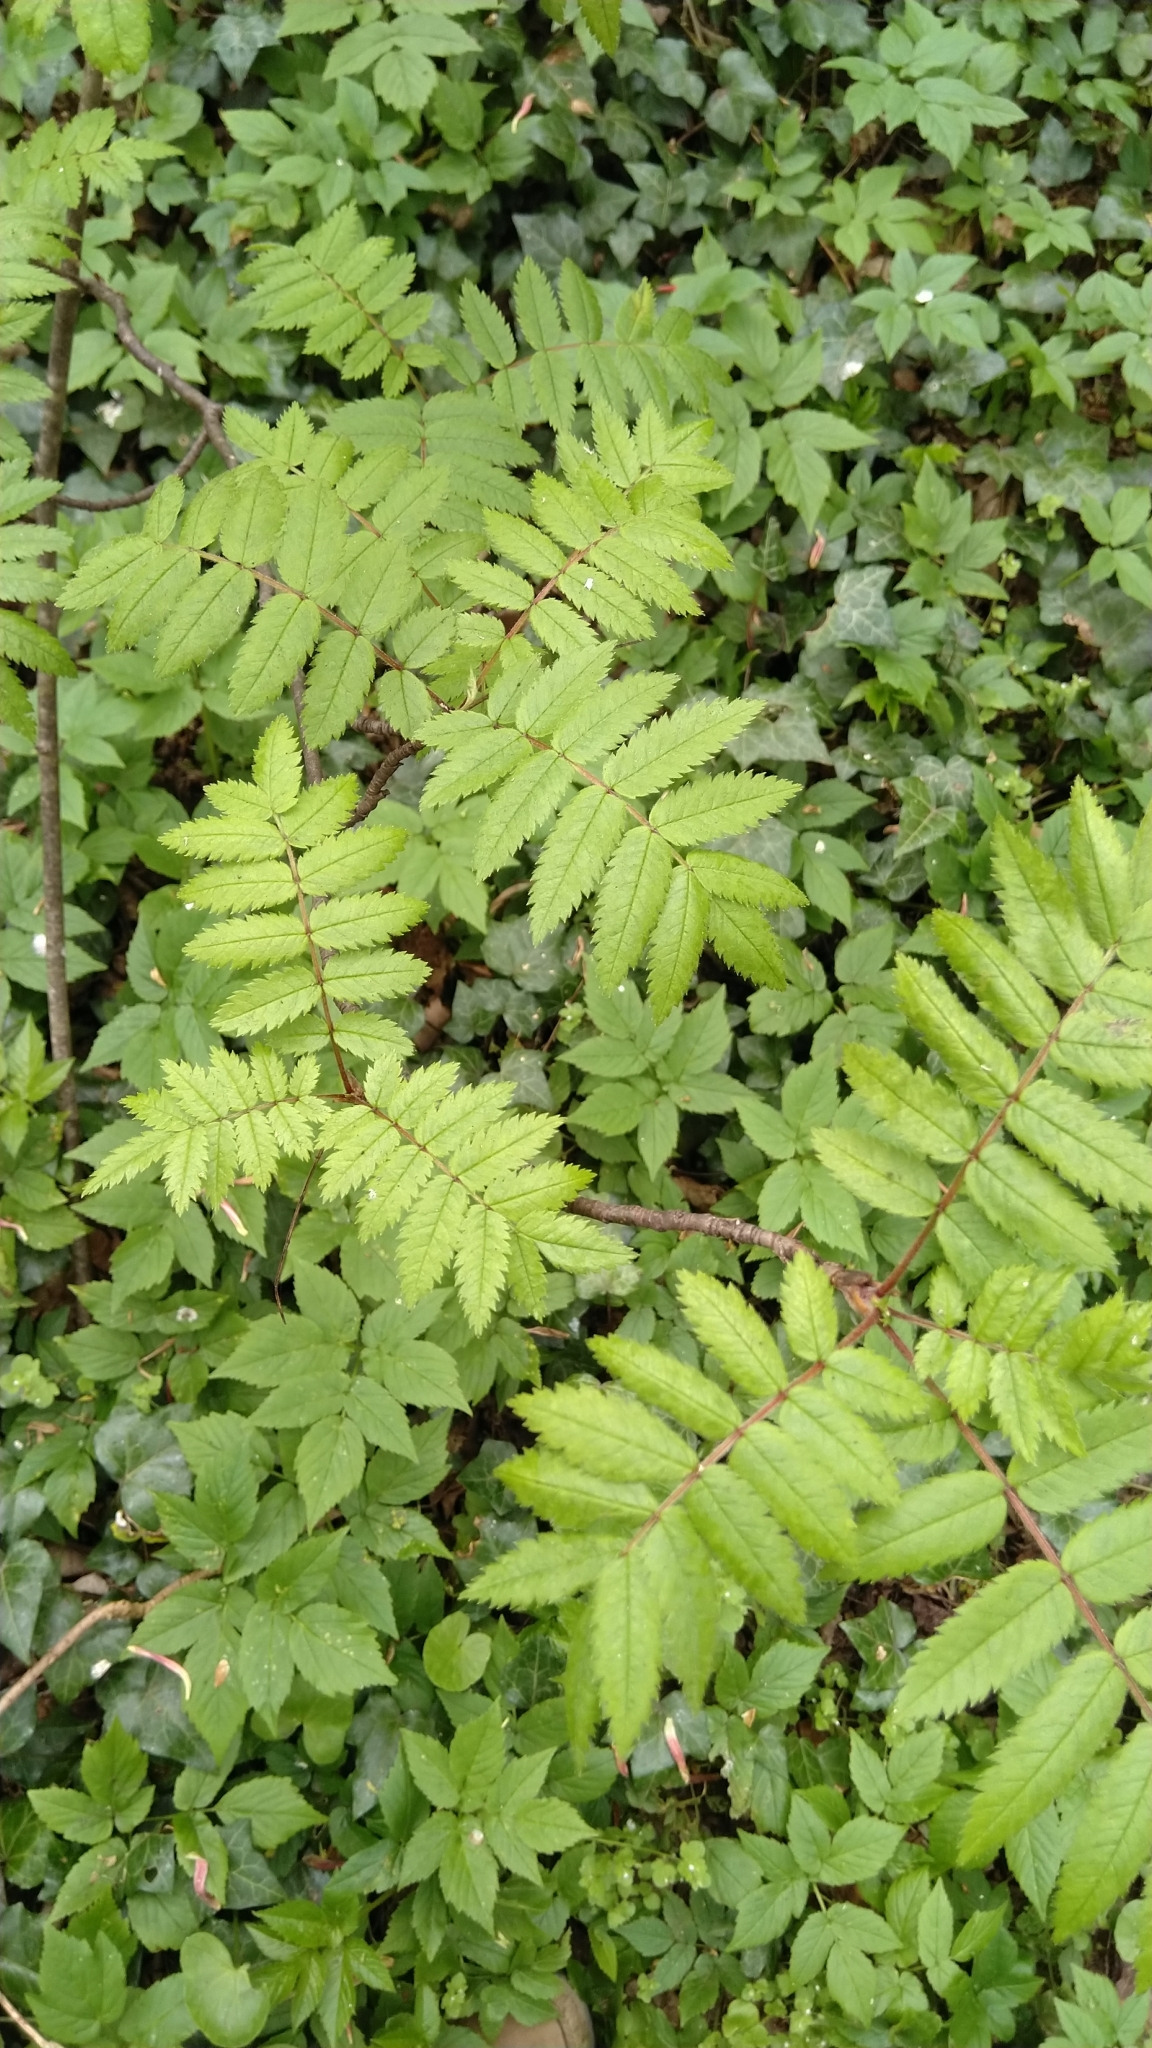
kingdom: Plantae
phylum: Tracheophyta
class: Magnoliopsida
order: Rosales
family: Rosaceae
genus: Sorbus
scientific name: Sorbus aucuparia
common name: Rowan
